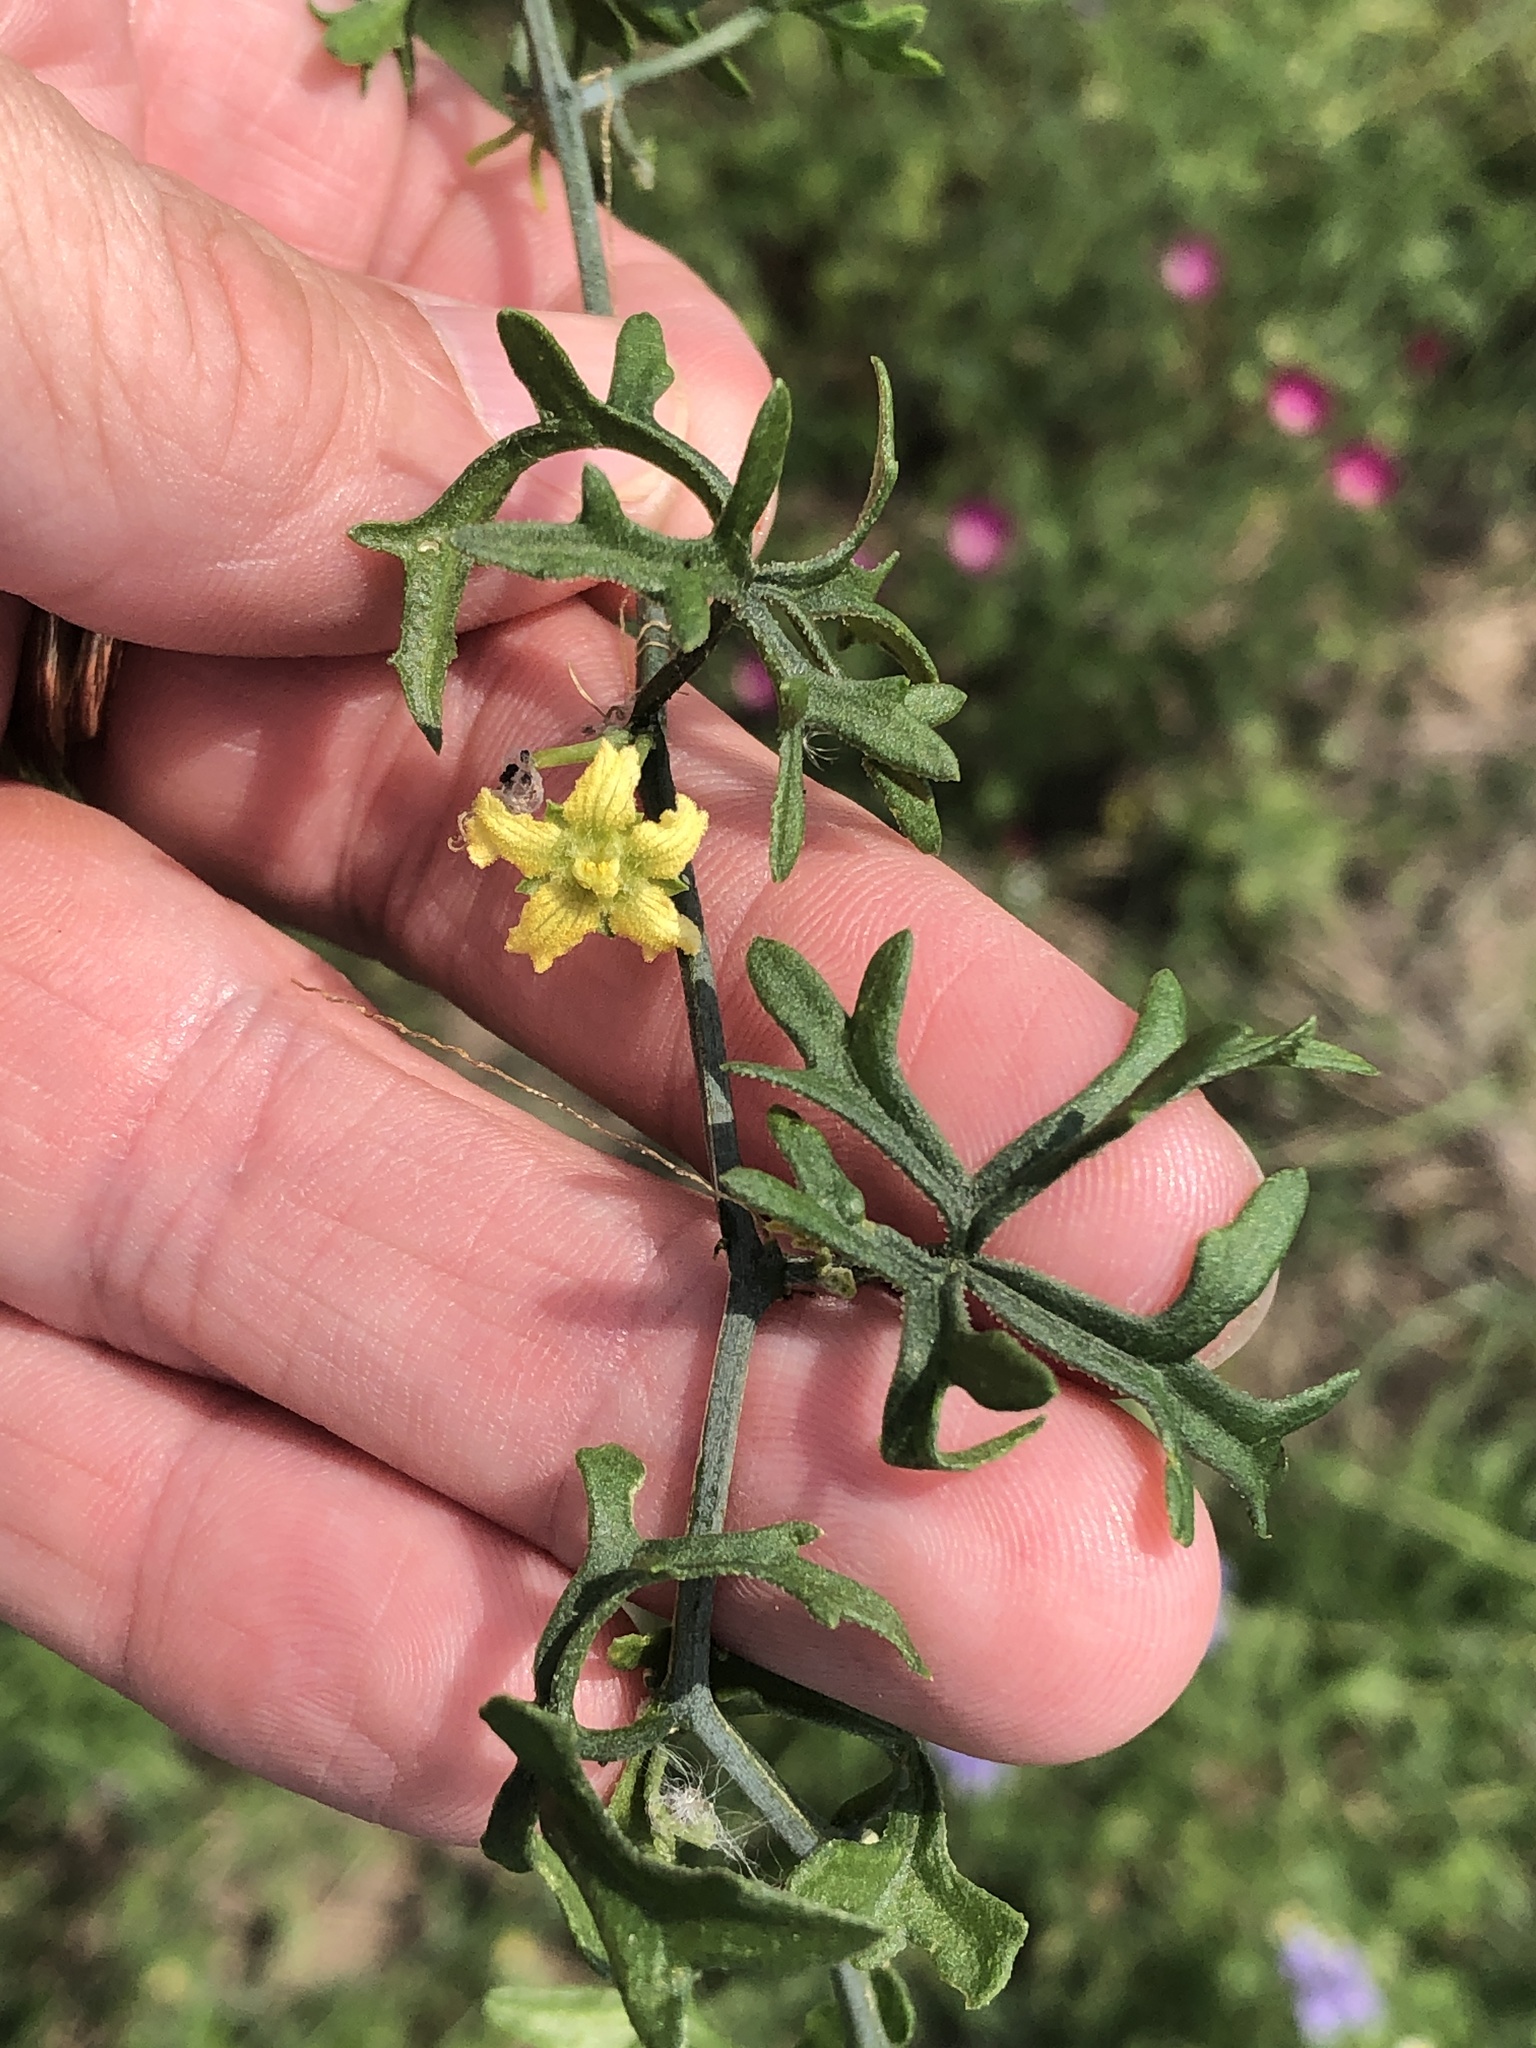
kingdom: Plantae
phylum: Tracheophyta
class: Magnoliopsida
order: Cucurbitales
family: Cucurbitaceae
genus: Ibervillea
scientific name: Ibervillea lindheimeri
